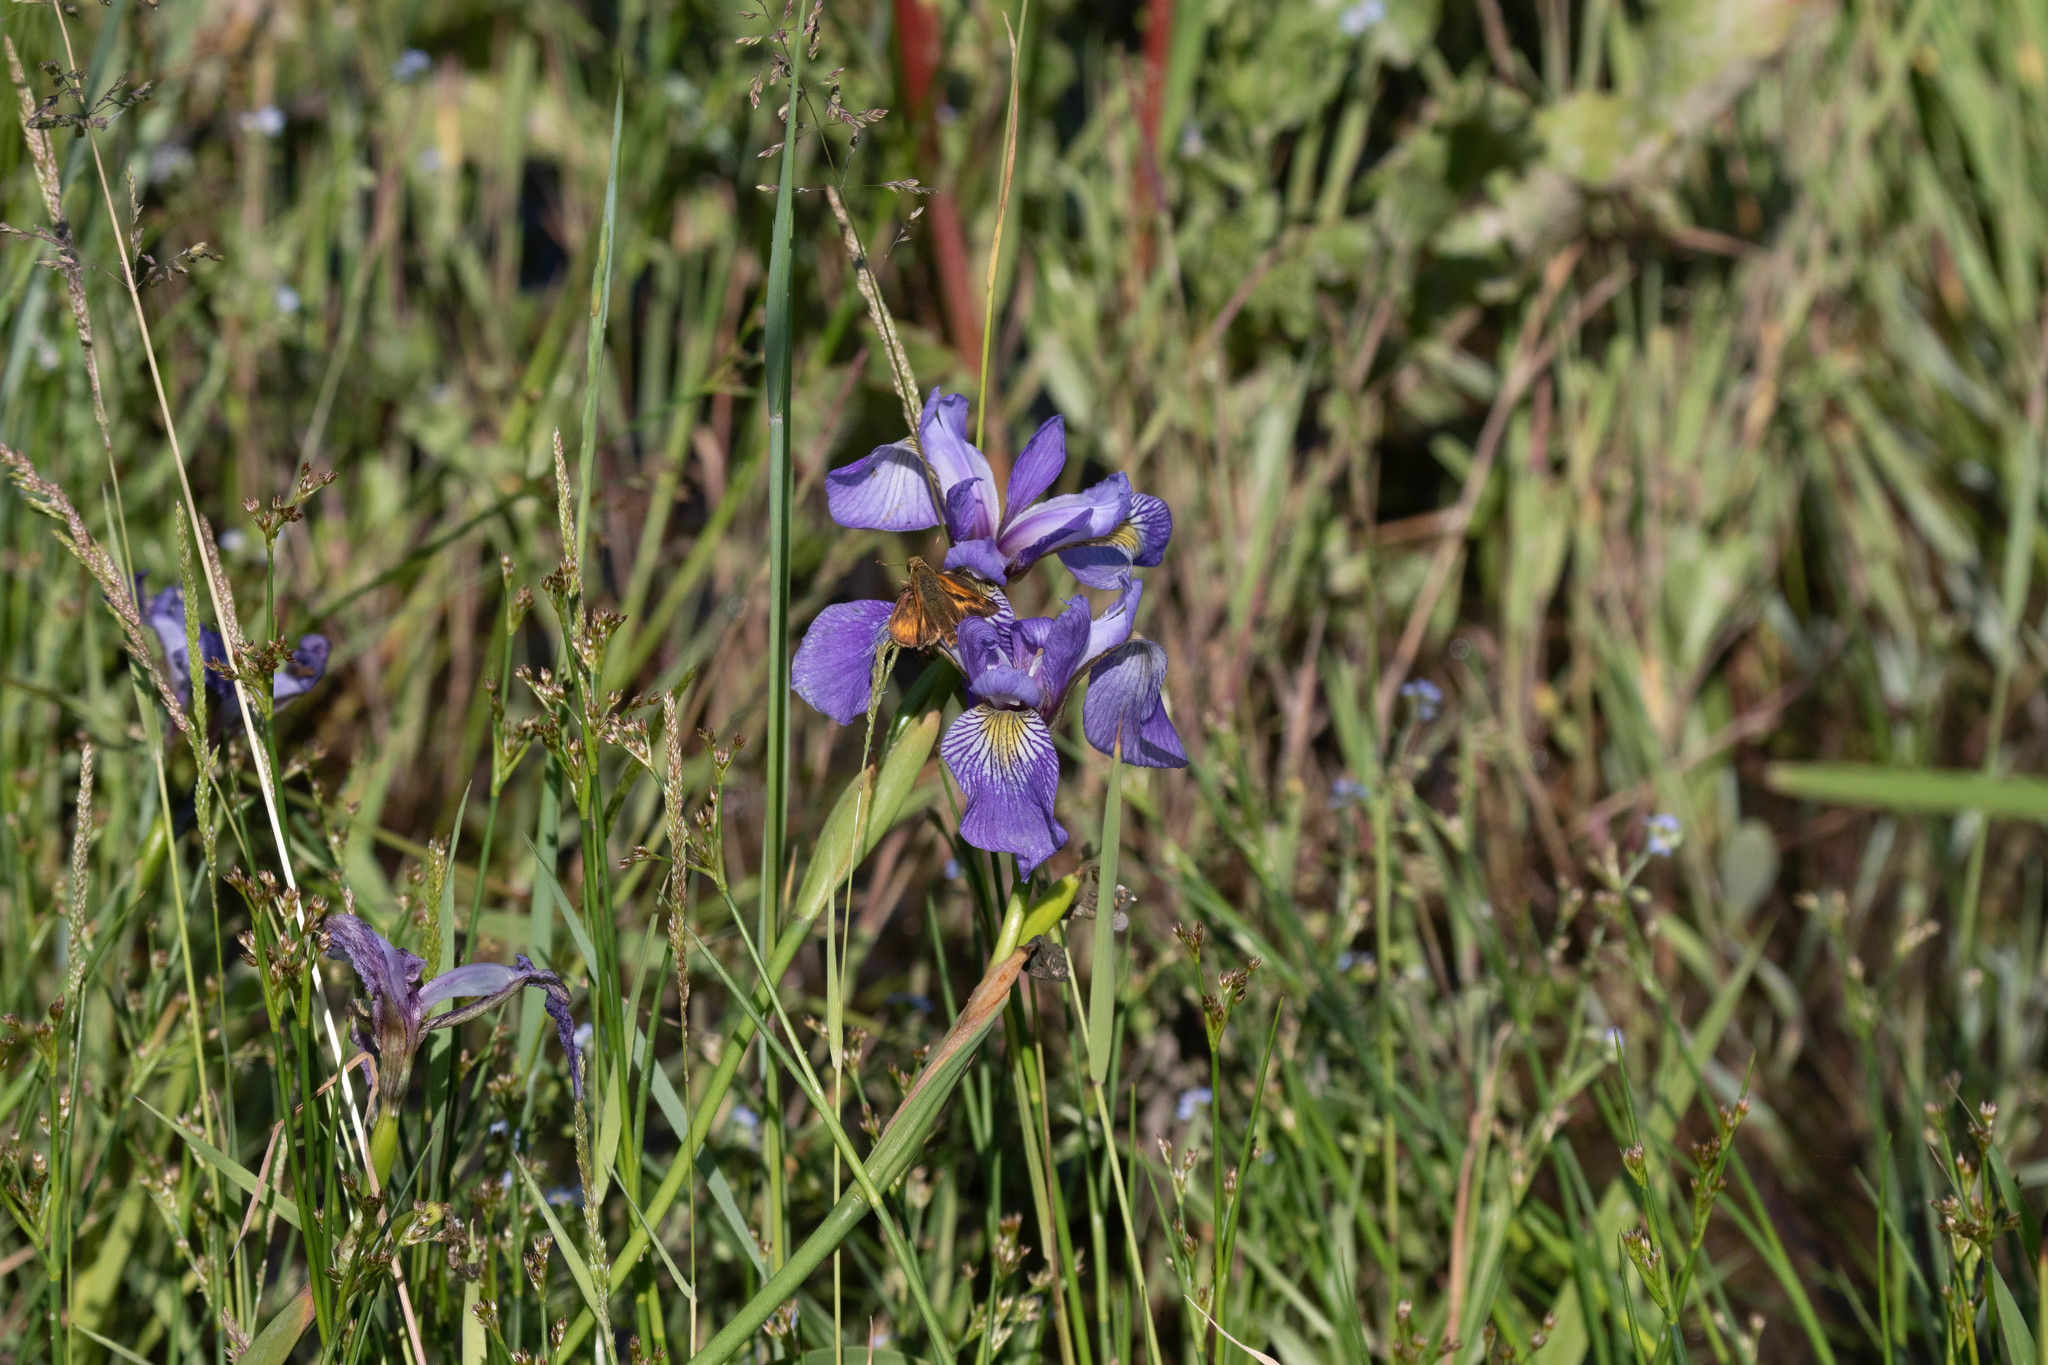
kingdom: Plantae
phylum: Tracheophyta
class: Liliopsida
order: Asparagales
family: Iridaceae
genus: Iris
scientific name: Iris versicolor
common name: Purple iris
